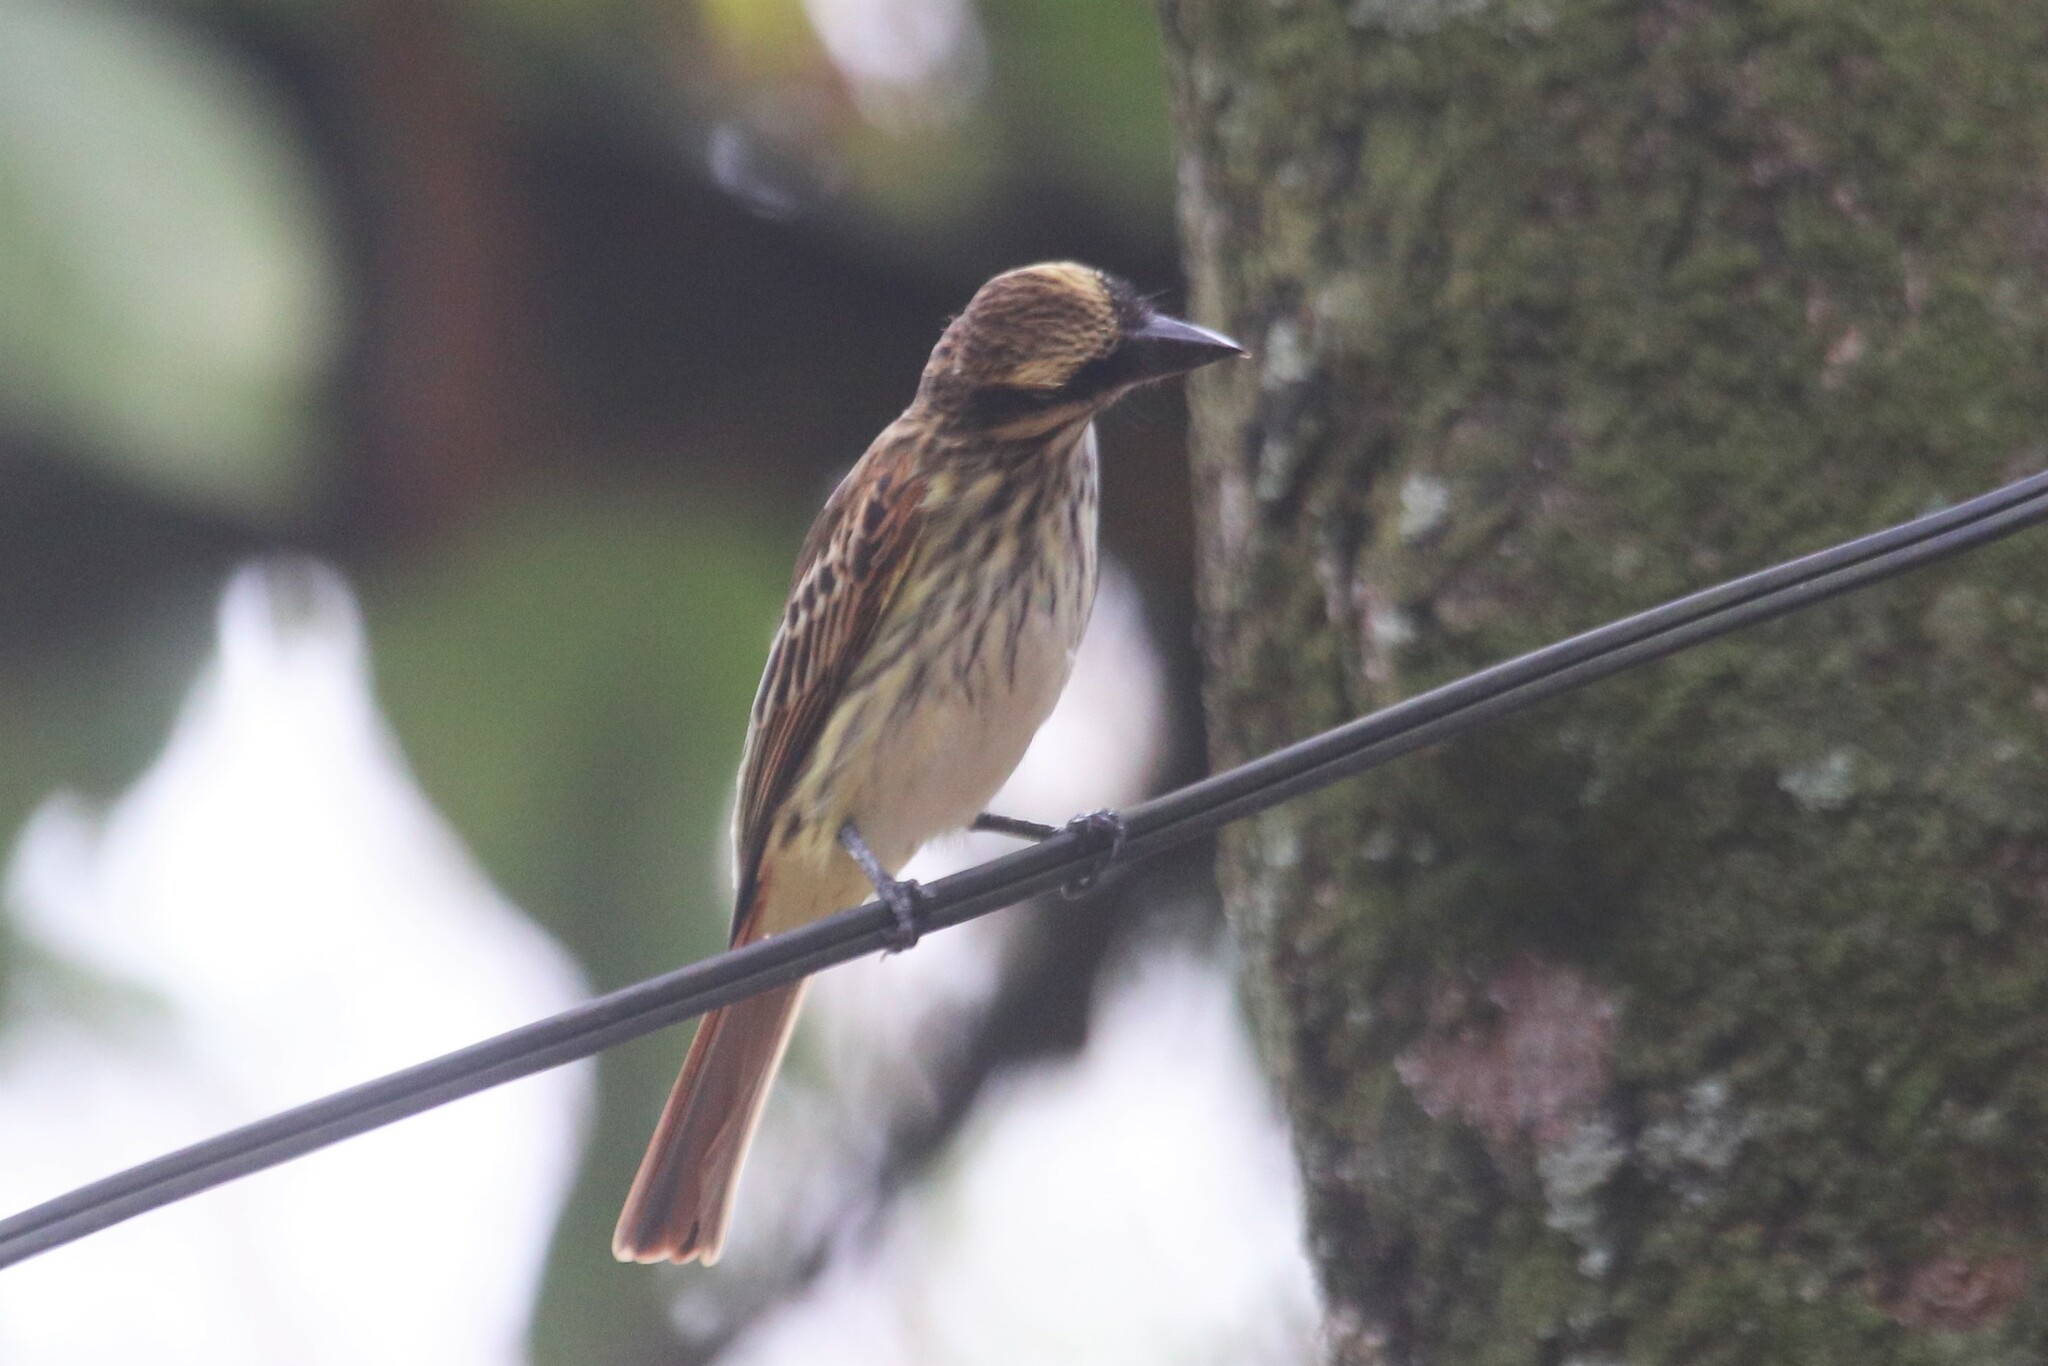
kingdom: Animalia
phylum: Chordata
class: Aves
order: Passeriformes
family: Tyrannidae
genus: Myiodynastes
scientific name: Myiodynastes maculatus
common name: Streaked flycatcher
